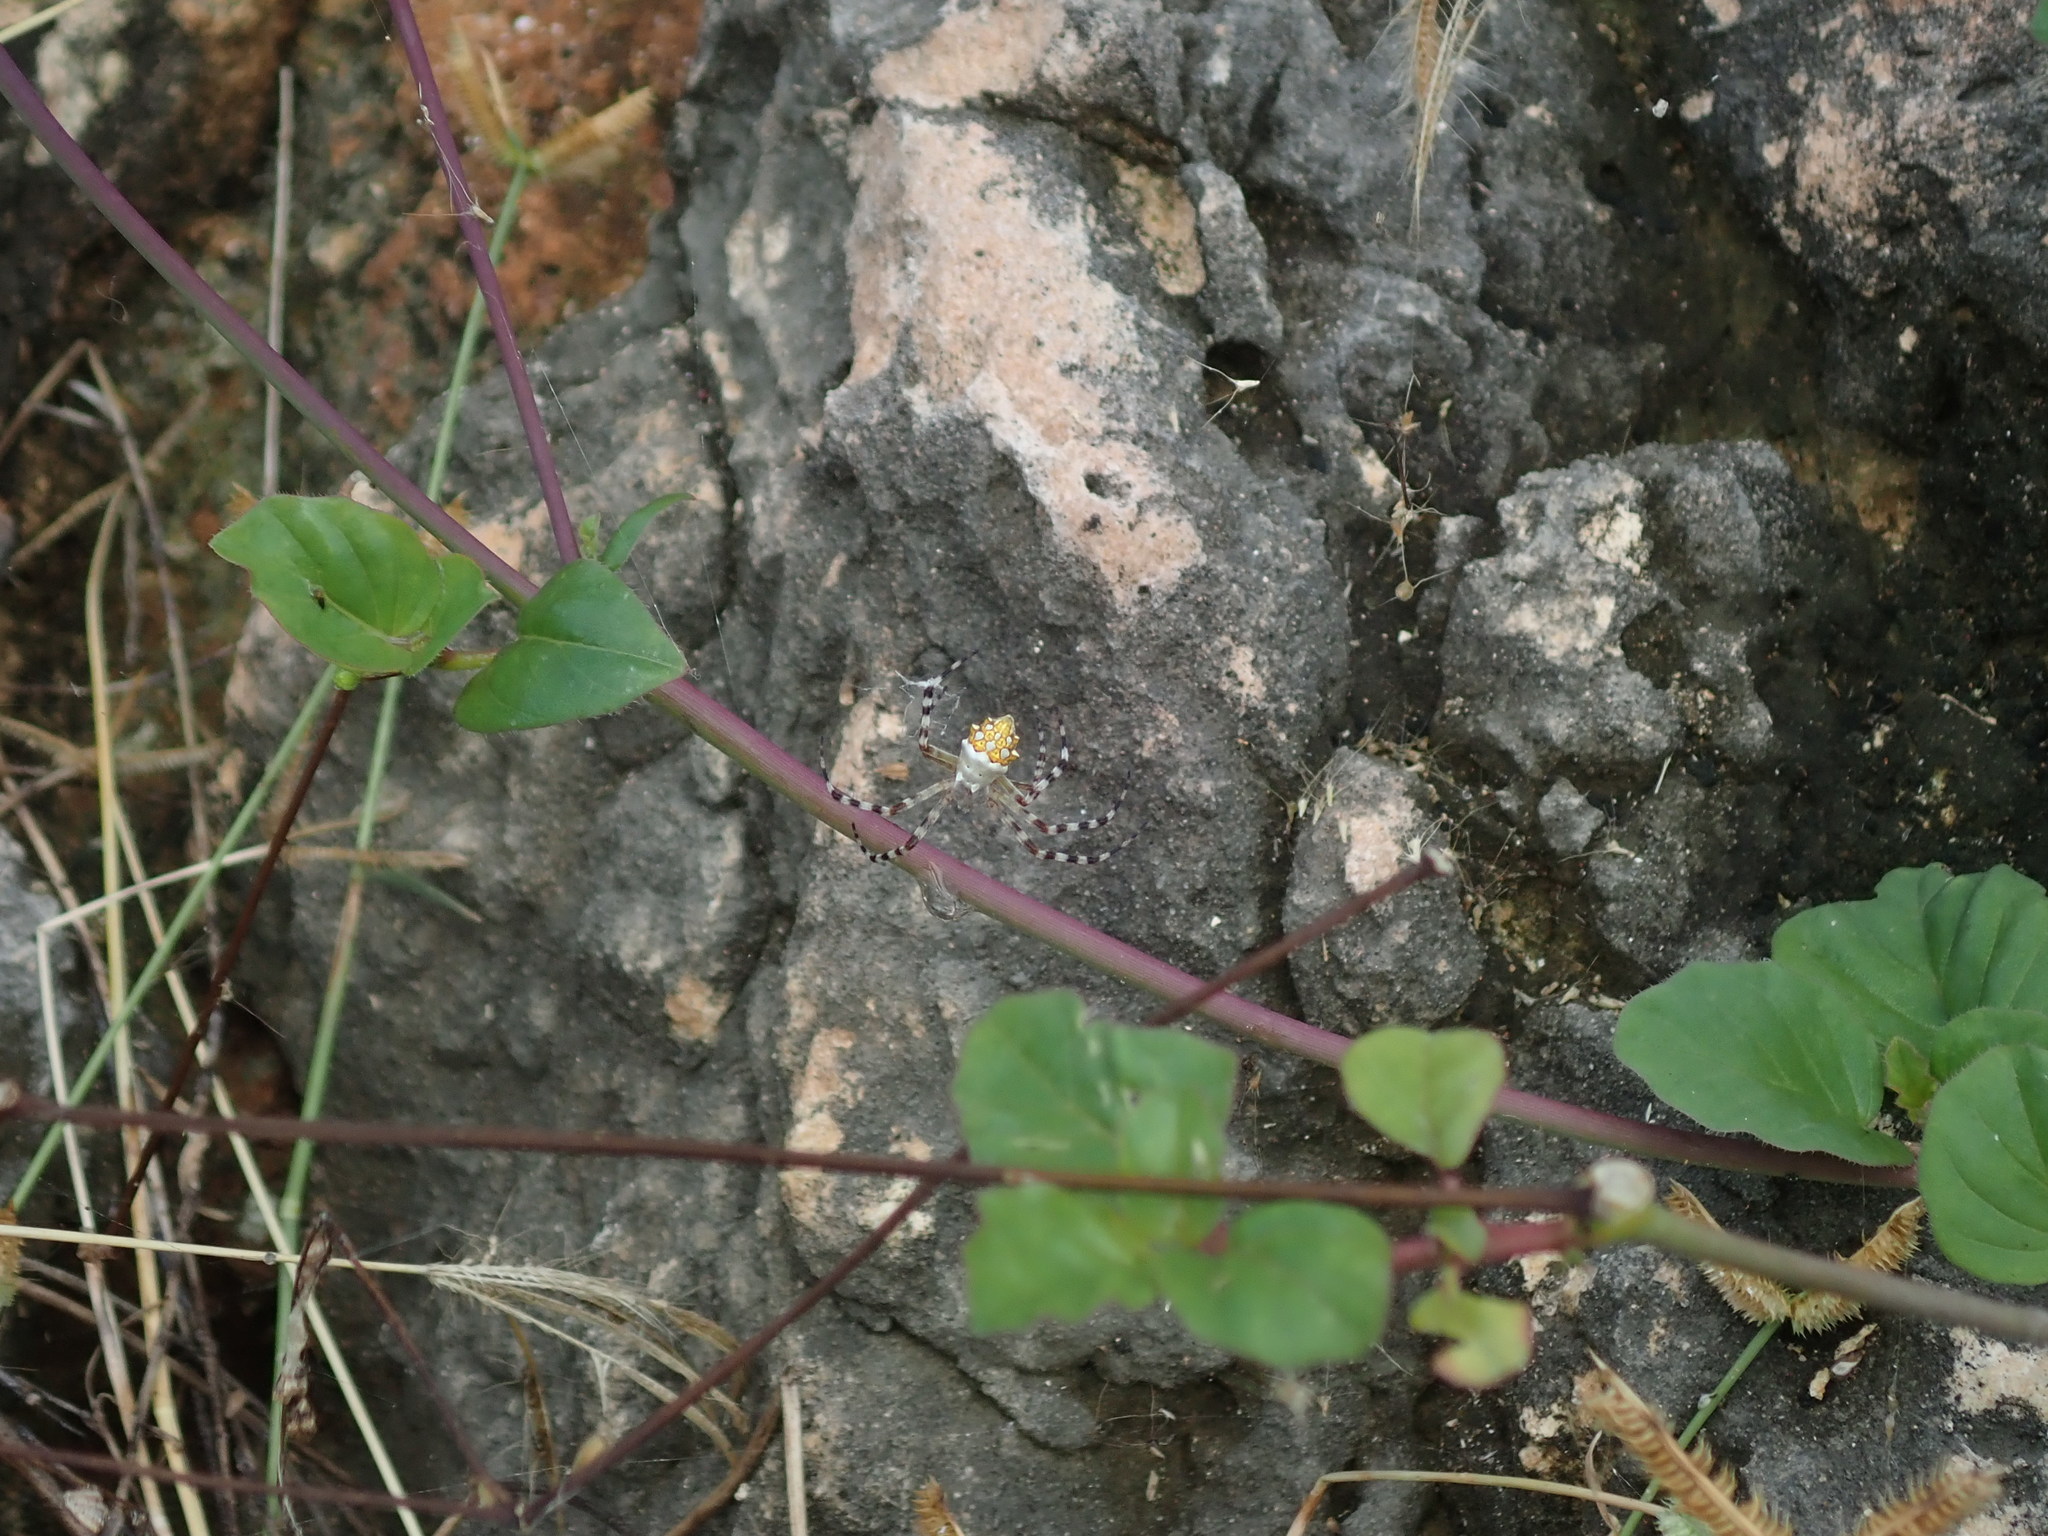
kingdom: Animalia
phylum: Arthropoda
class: Arachnida
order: Araneae
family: Araneidae
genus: Argiope
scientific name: Argiope argentata
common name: Orb weavers
